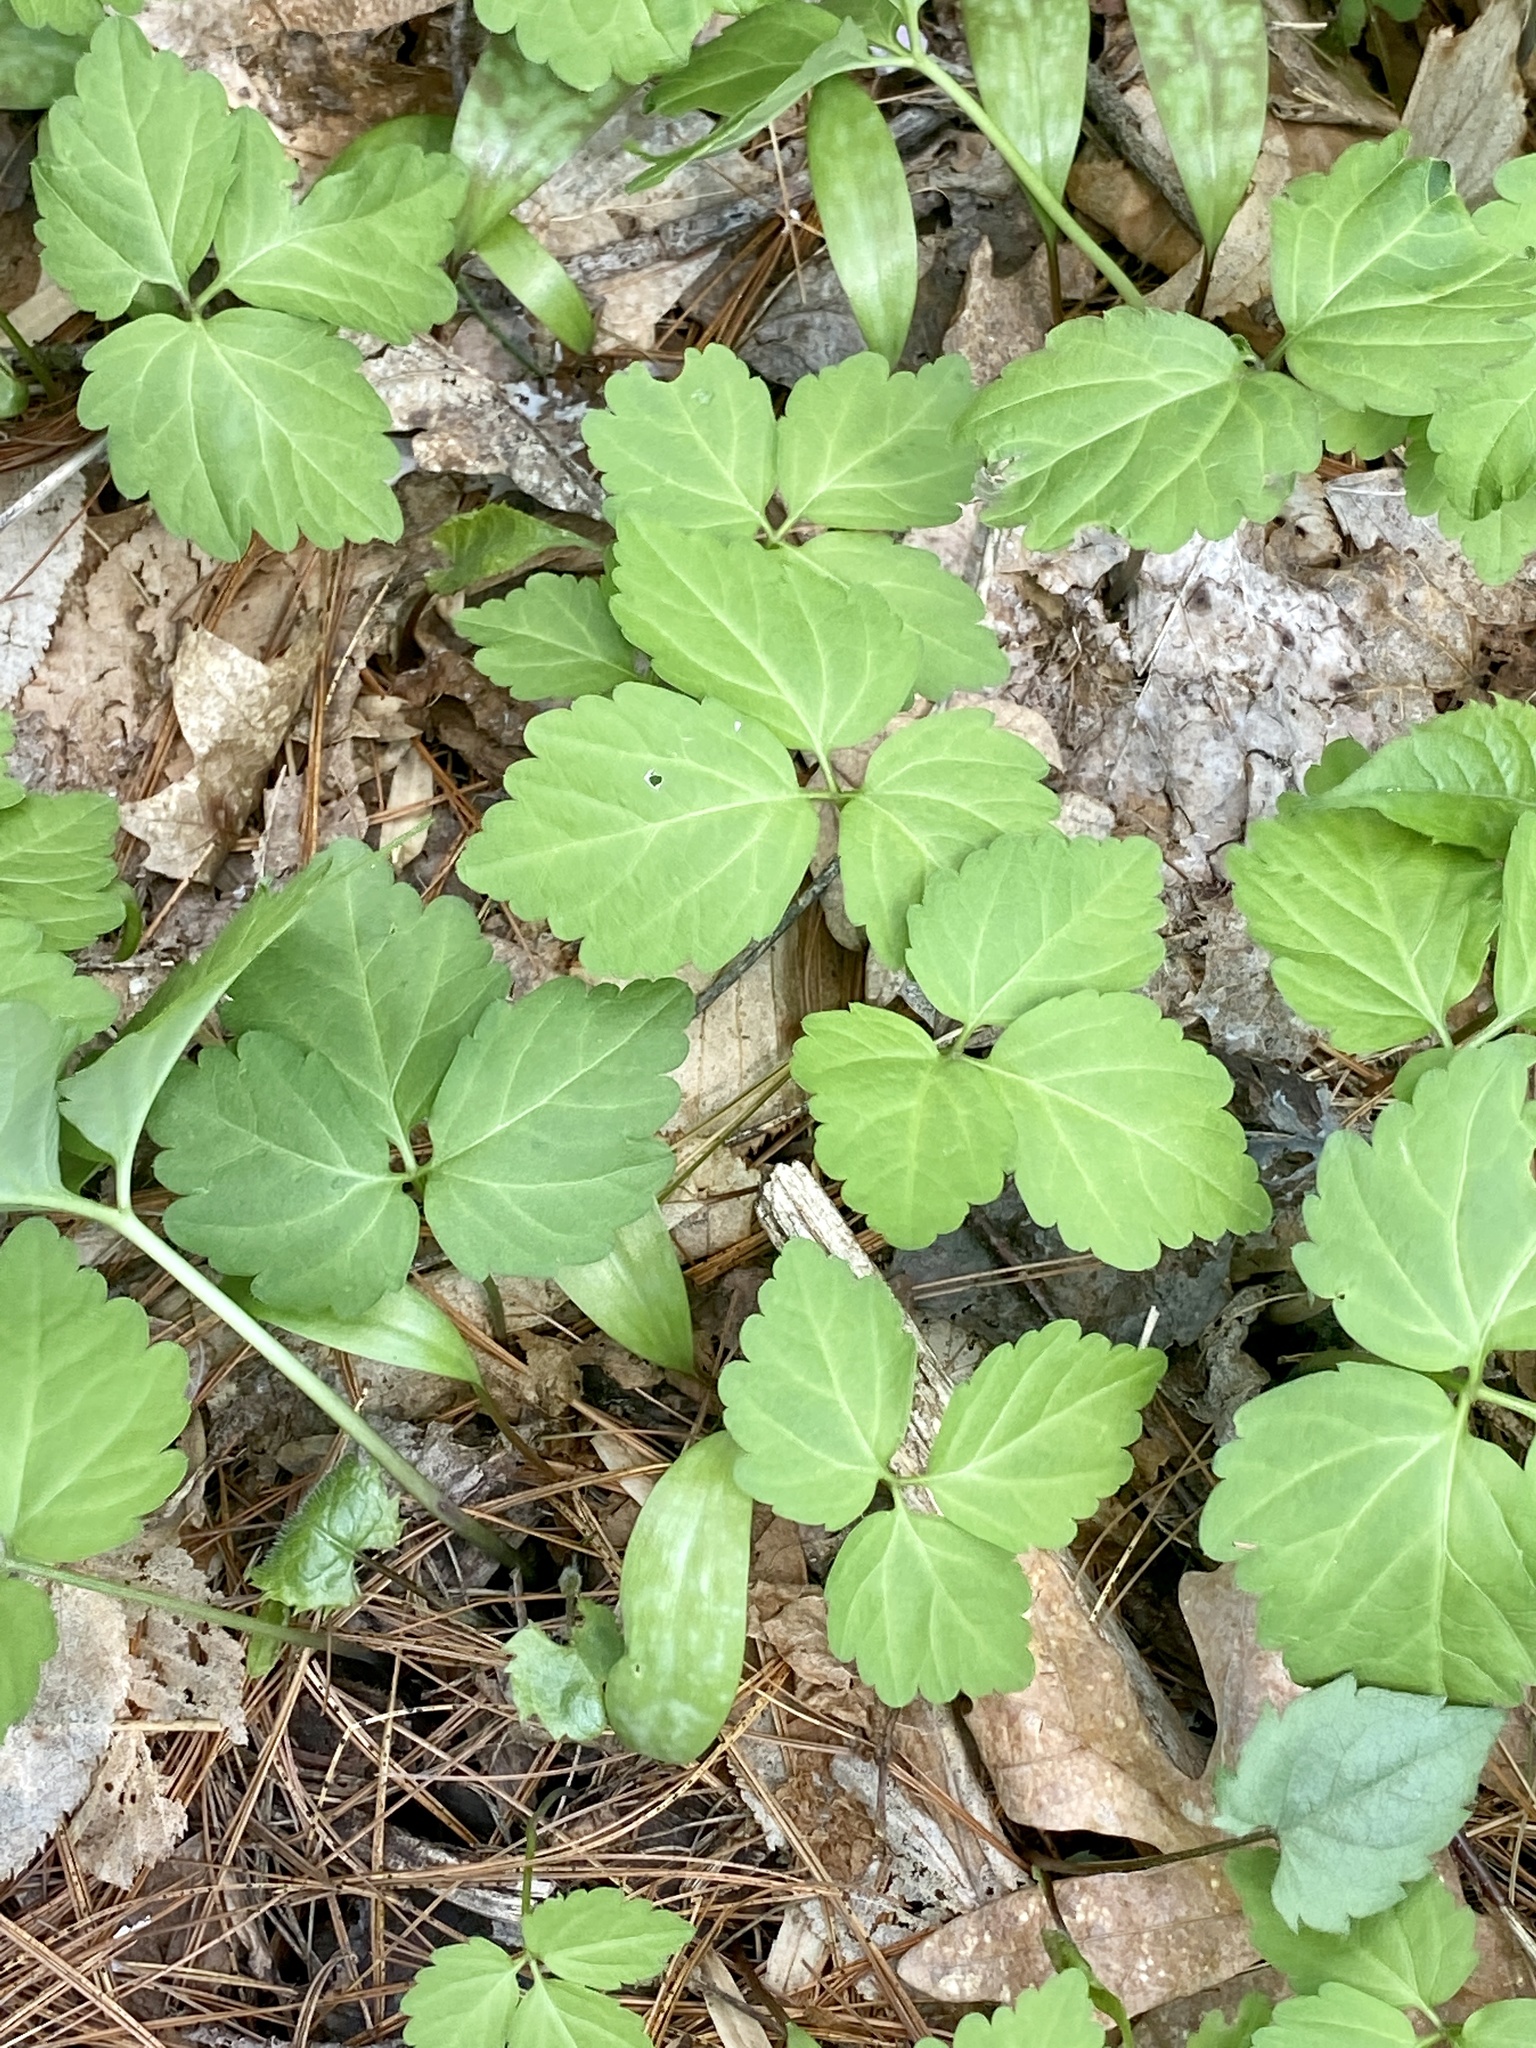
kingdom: Plantae
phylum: Tracheophyta
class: Magnoliopsida
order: Brassicales
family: Brassicaceae
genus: Cardamine
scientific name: Cardamine diphylla
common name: Broad-leaved toothwort
